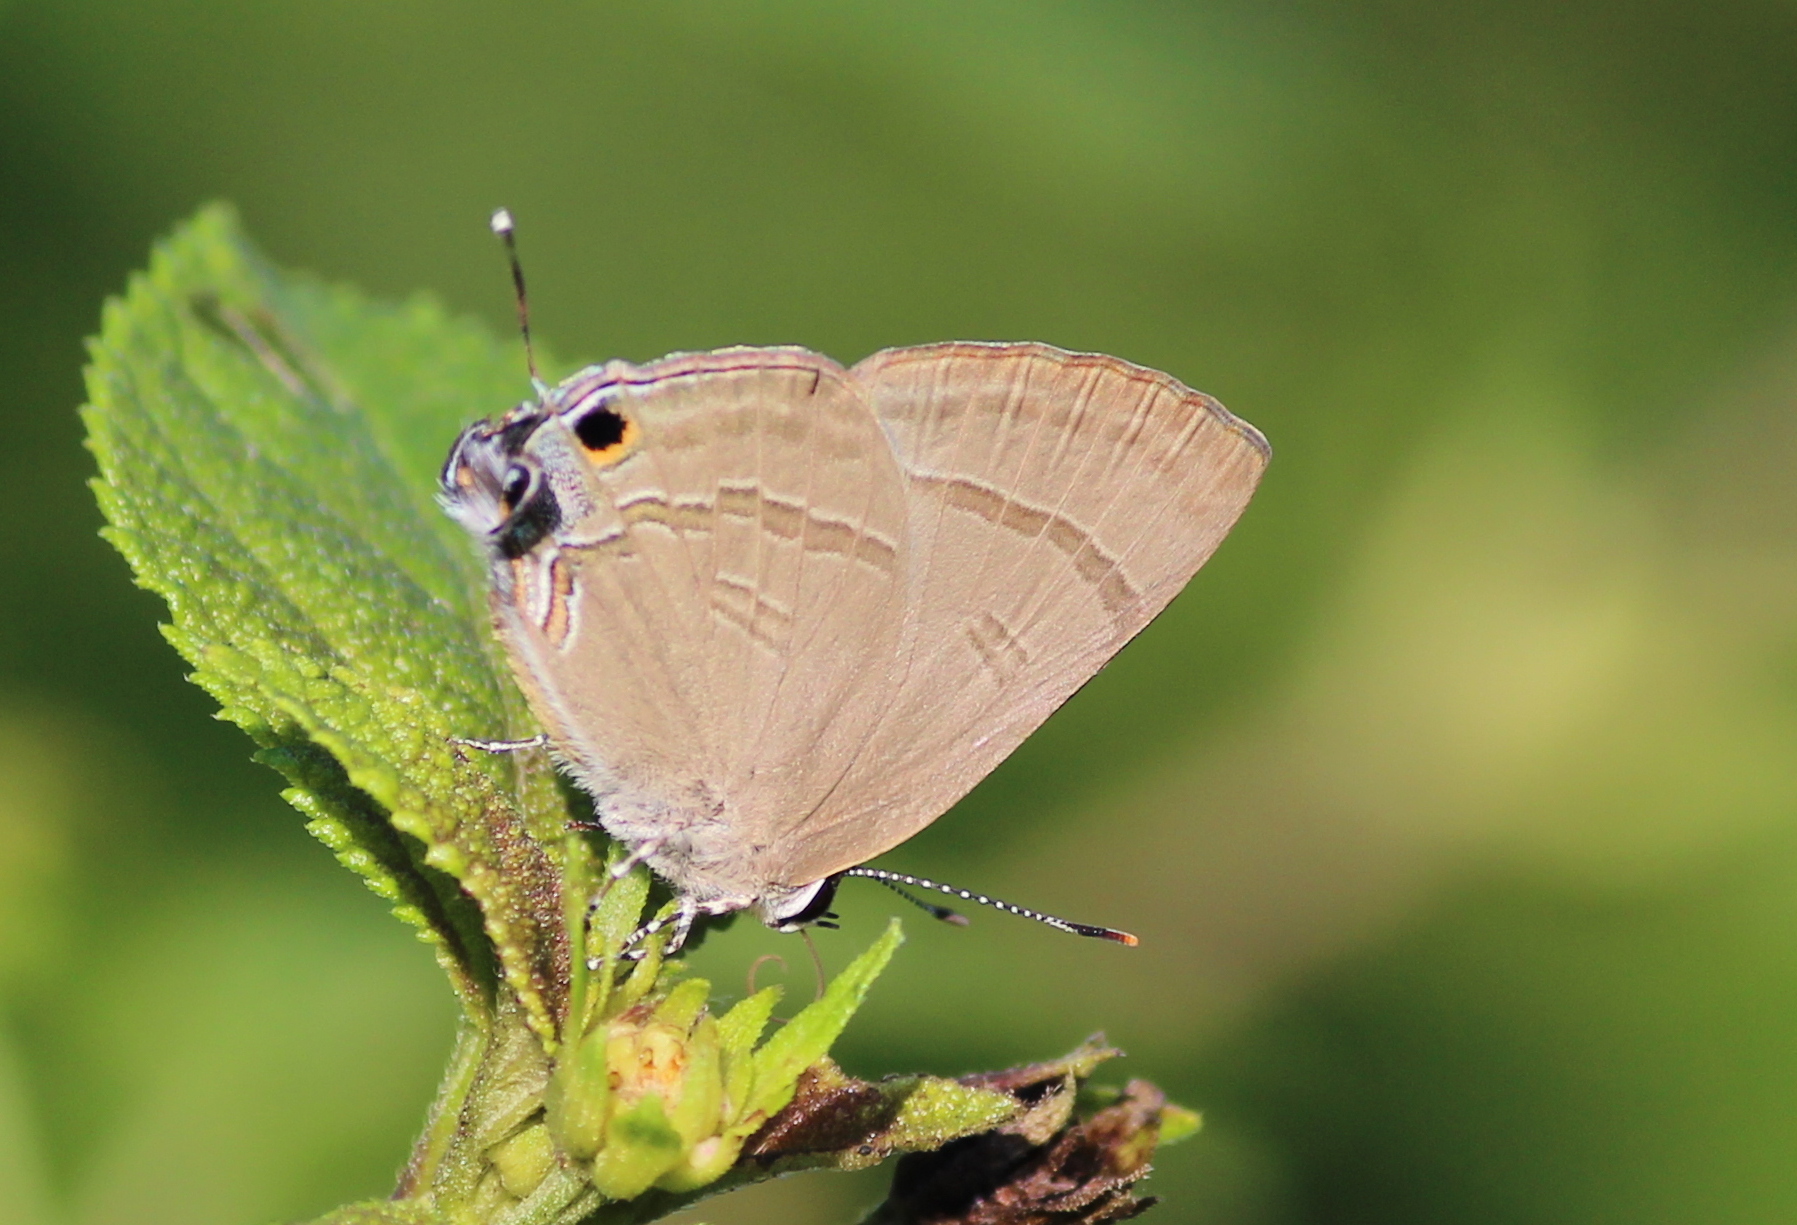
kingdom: Animalia
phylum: Arthropoda
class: Insecta
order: Lepidoptera
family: Lycaenidae
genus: Rapala
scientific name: Rapala manea
